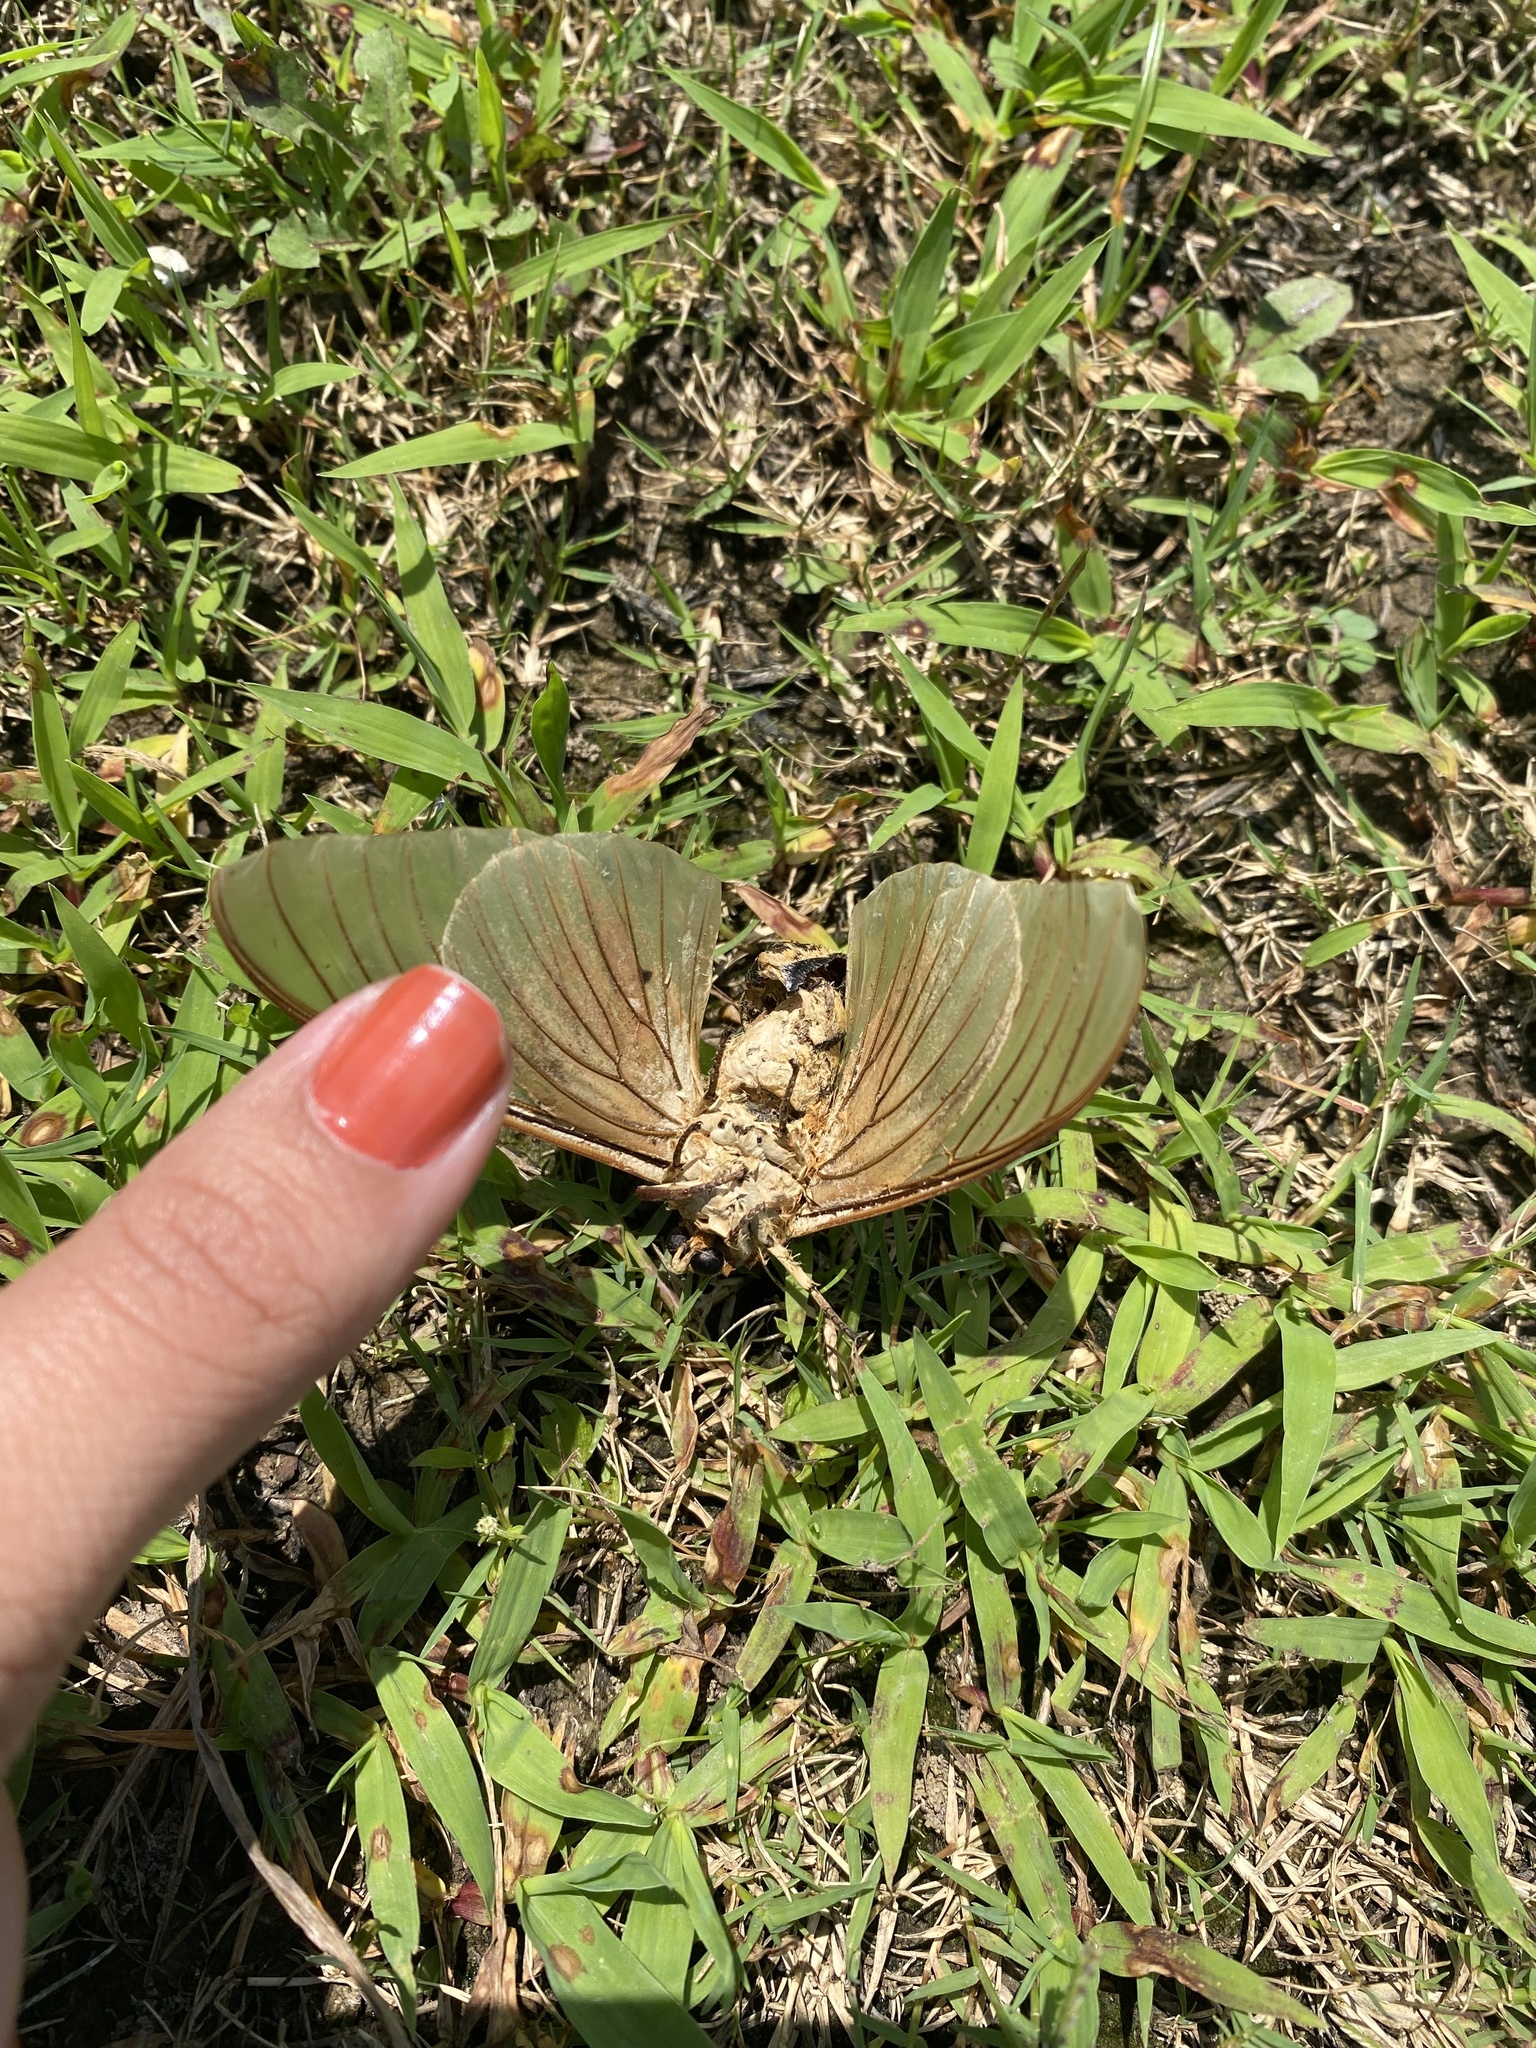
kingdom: Animalia
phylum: Arthropoda
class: Insecta
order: Lepidoptera
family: Saturniidae
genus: Eacles
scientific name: Eacles imperialis
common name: Imperial moth
